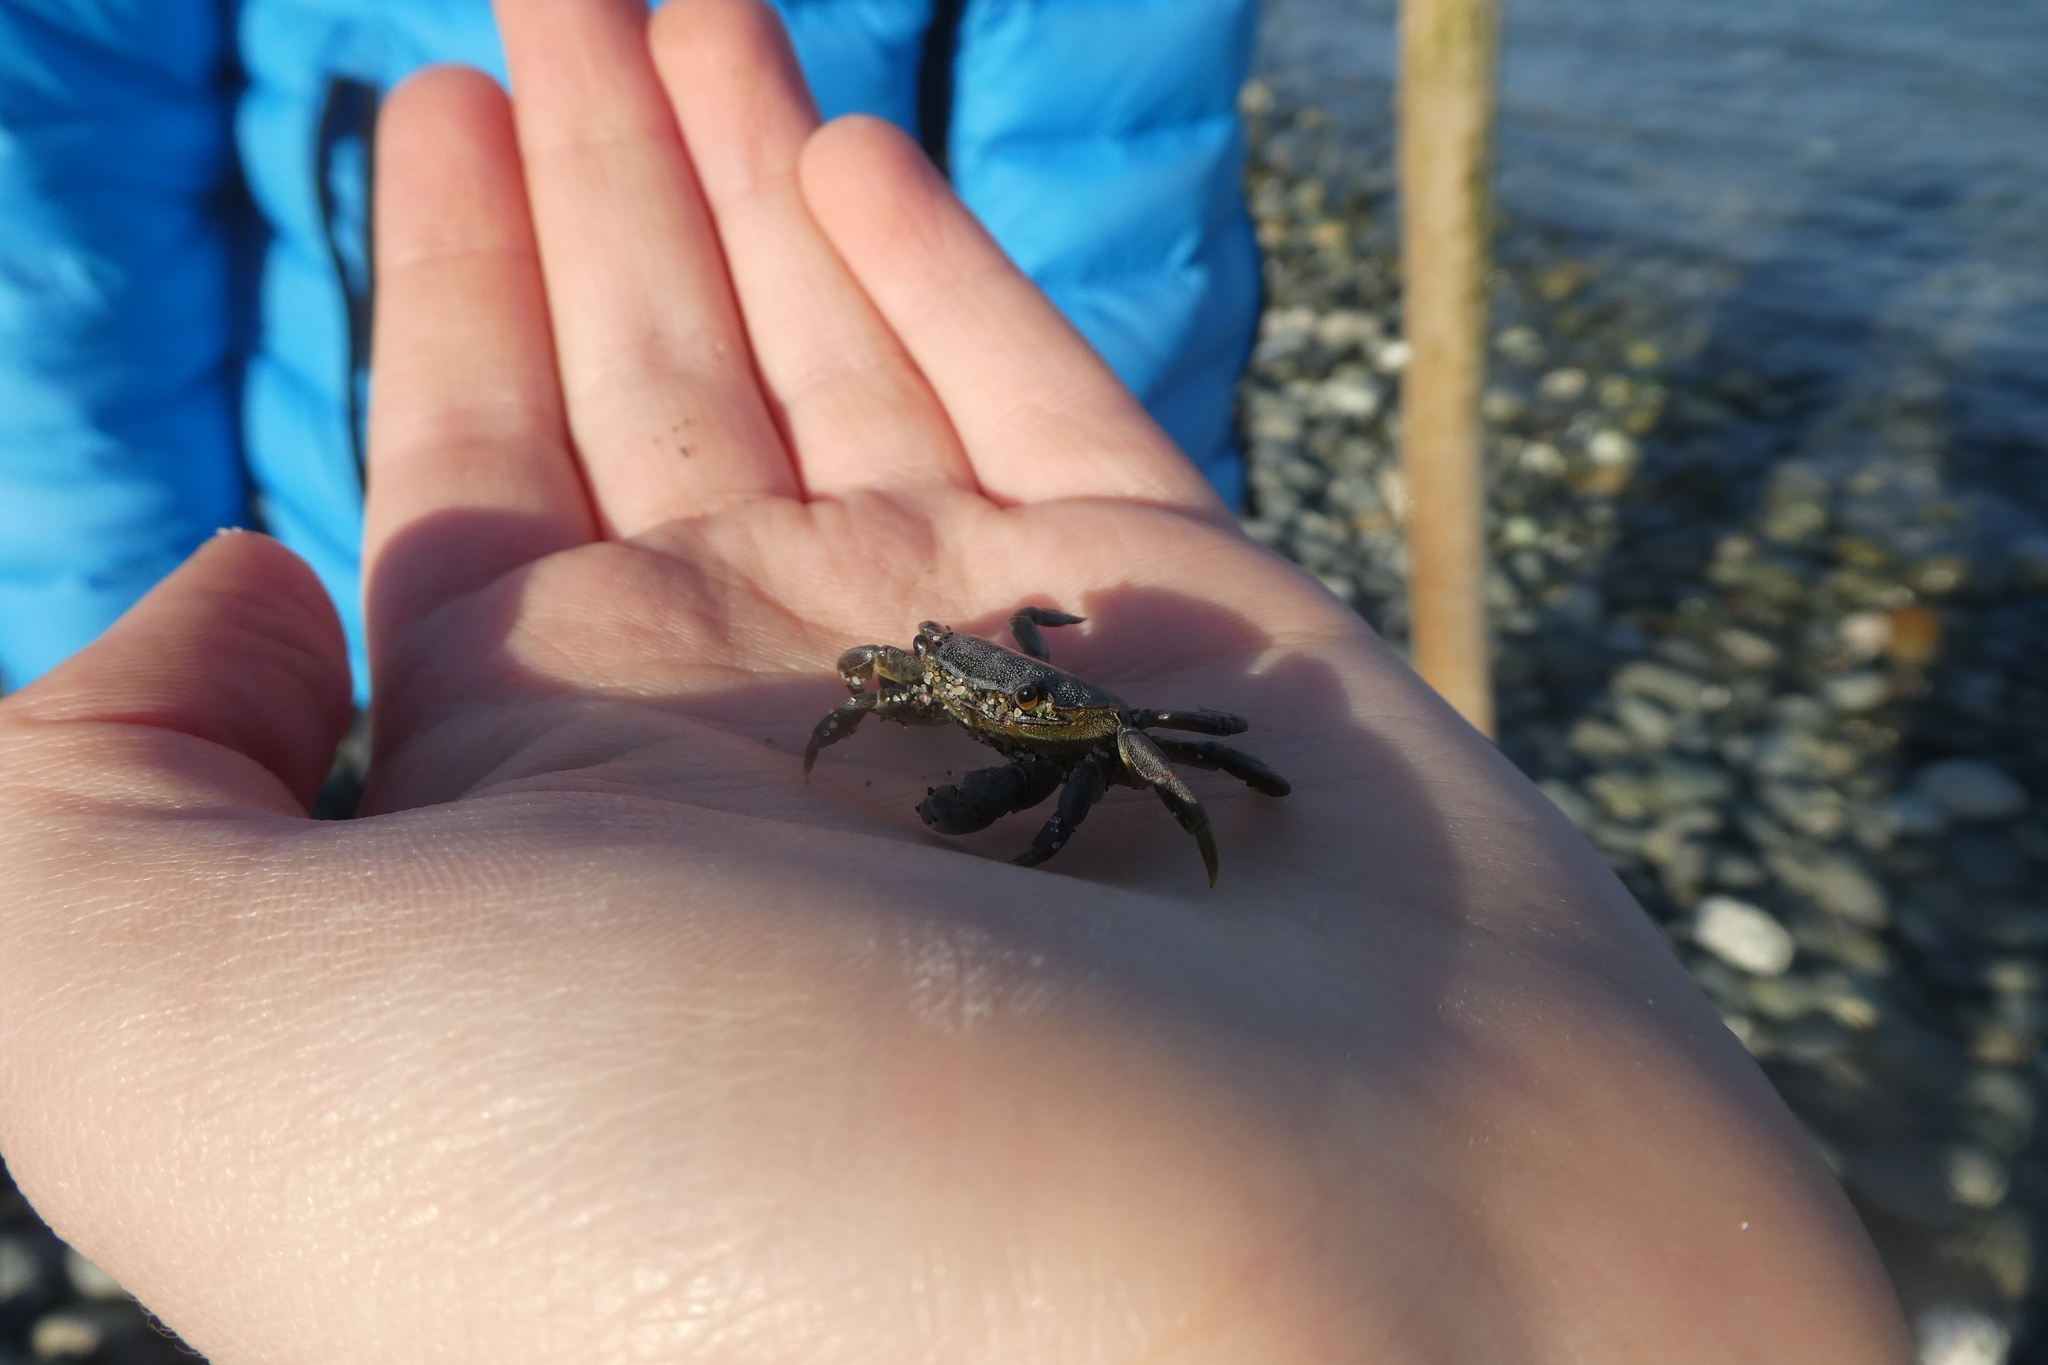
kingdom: Animalia
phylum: Arthropoda
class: Malacostraca
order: Decapoda
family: Varunidae
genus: Hemigrapsus
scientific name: Hemigrapsus nudus
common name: Purple shore crab
